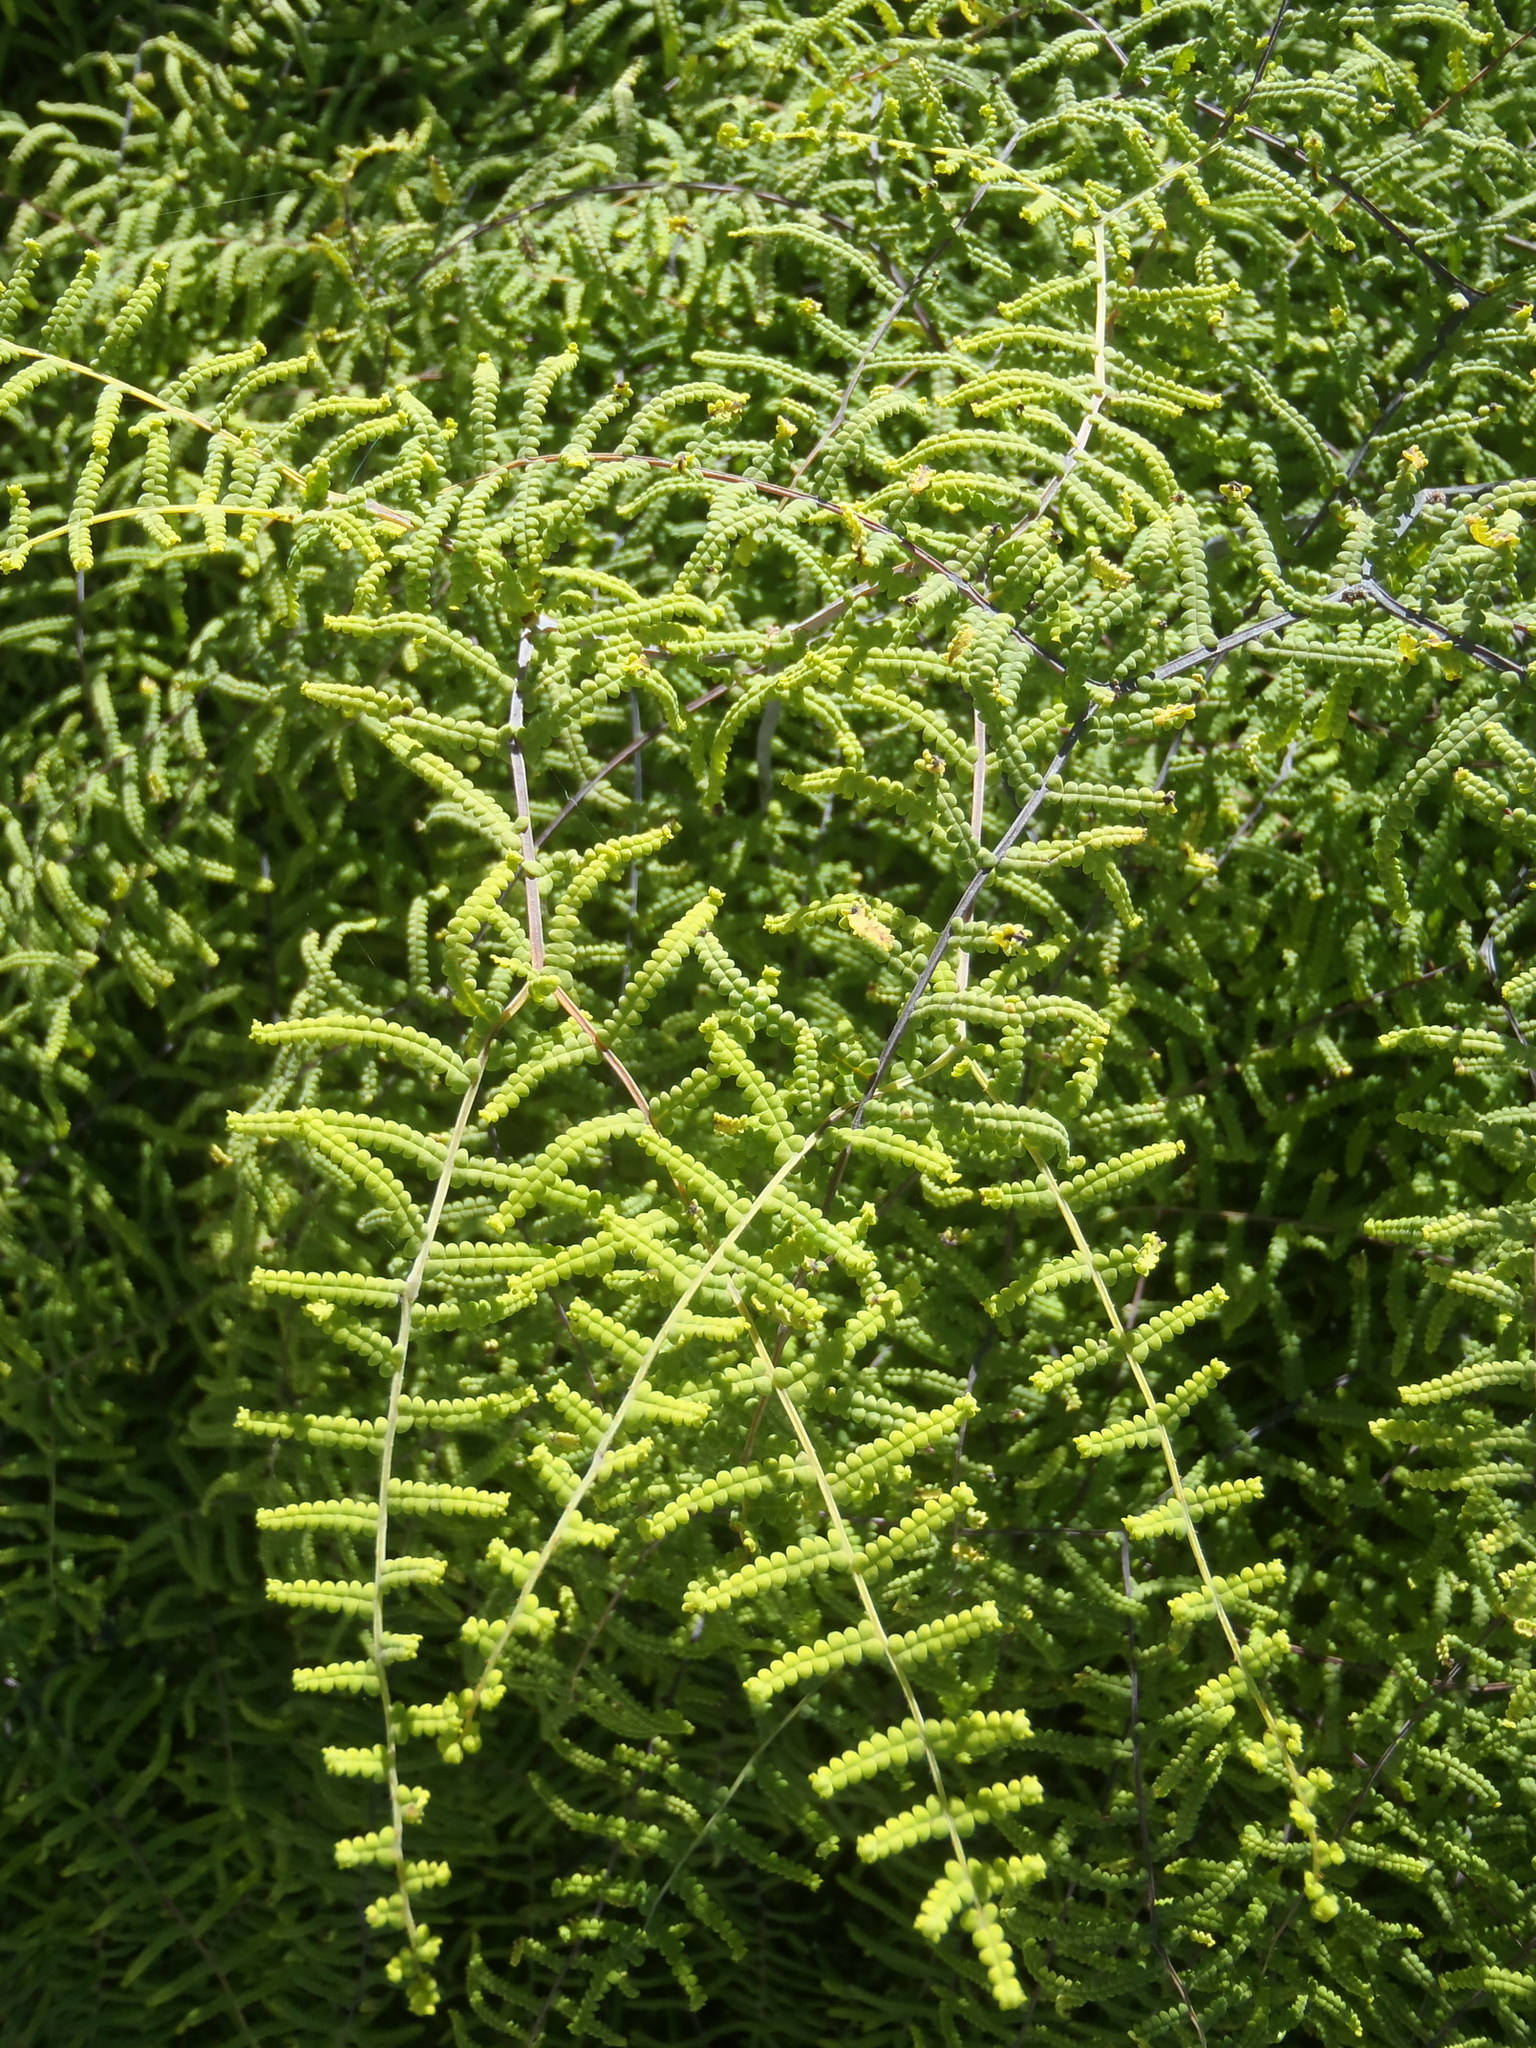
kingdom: Plantae
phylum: Tracheophyta
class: Polypodiopsida
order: Gleicheniales
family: Gleicheniaceae
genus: Gleichenia
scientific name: Gleichenia polypodioides
